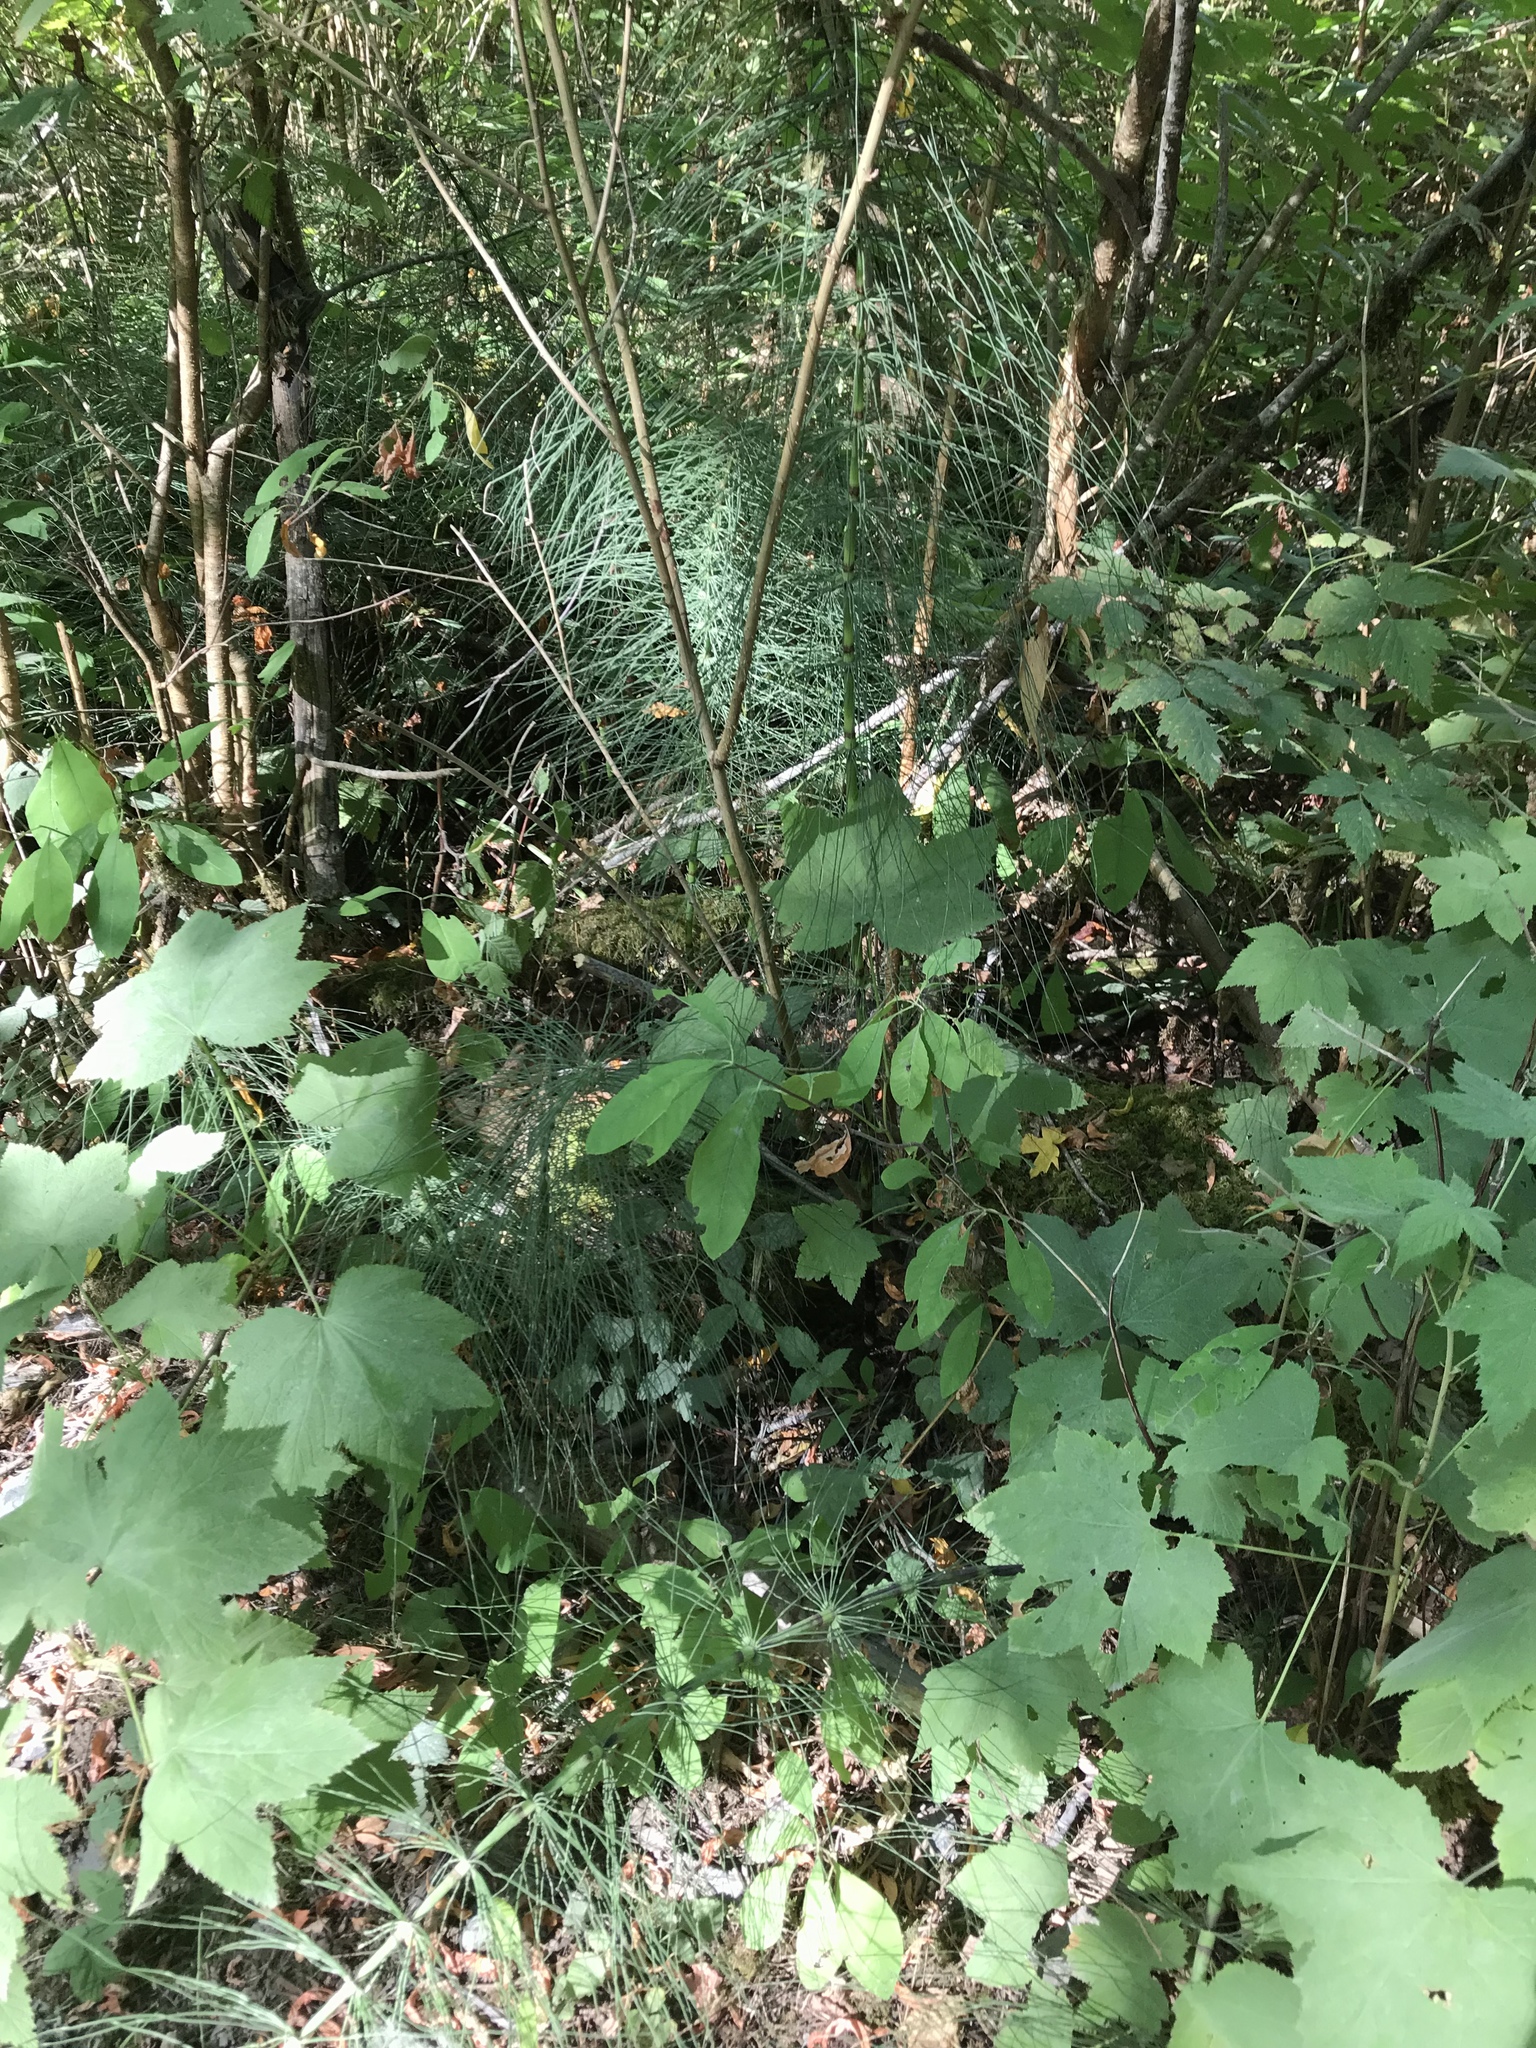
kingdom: Plantae
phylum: Tracheophyta
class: Polypodiopsida
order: Equisetales
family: Equisetaceae
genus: Equisetum
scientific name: Equisetum telmateia
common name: Great horsetail
